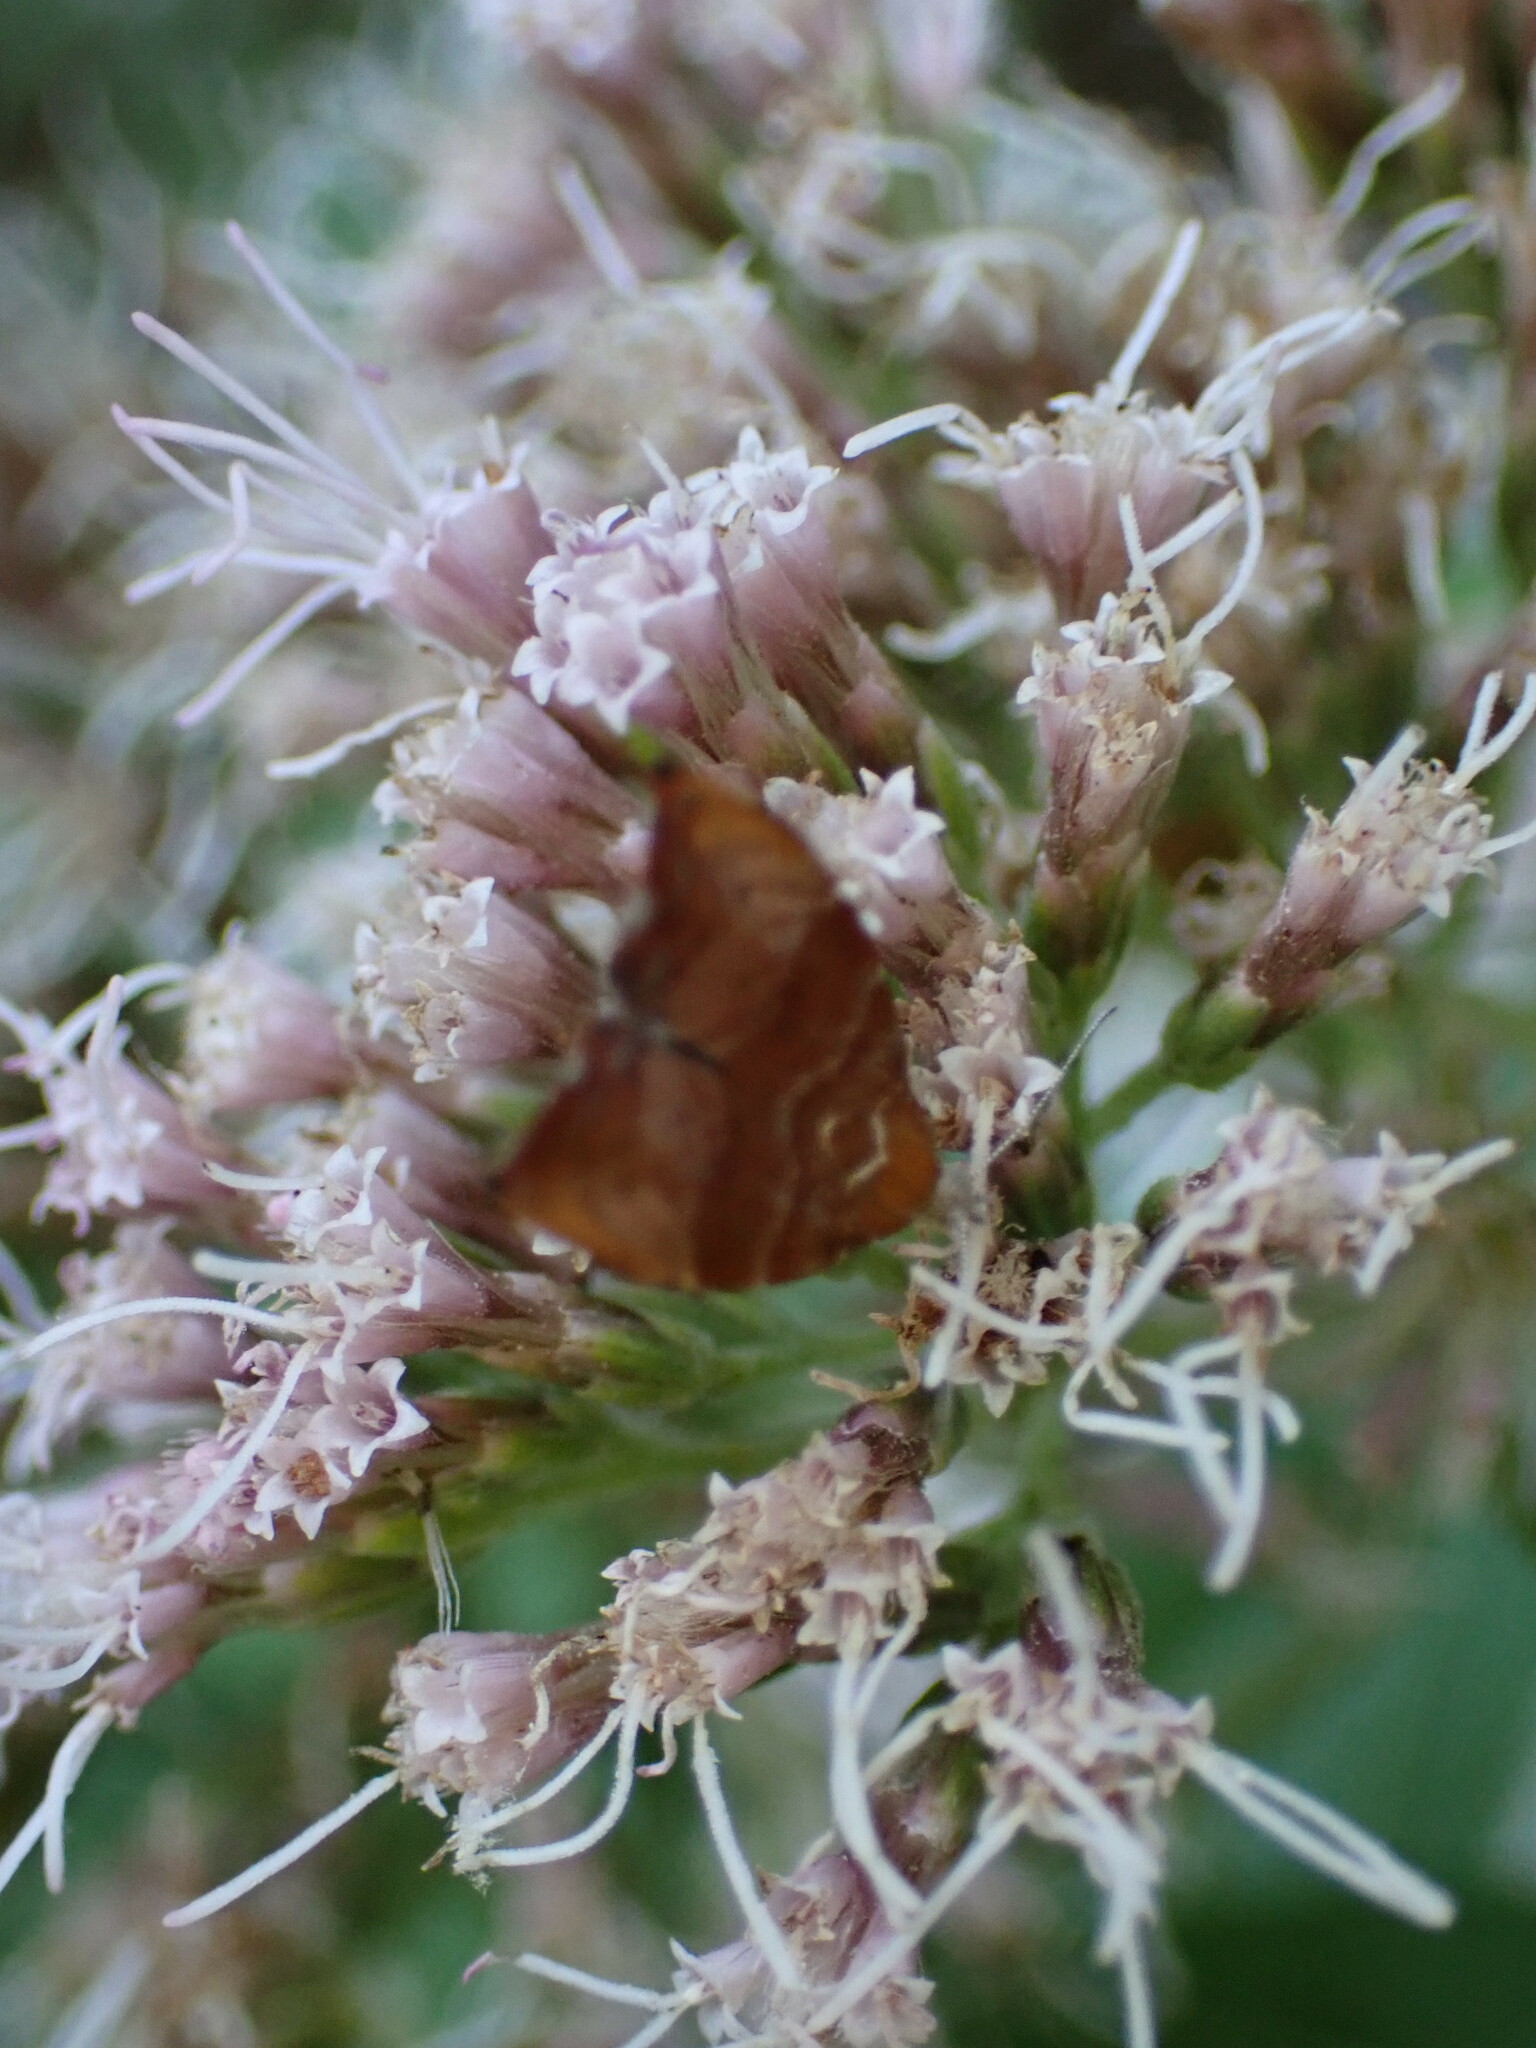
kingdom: Animalia
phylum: Arthropoda
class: Insecta
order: Lepidoptera
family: Choreutidae
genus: Anthophila
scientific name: Anthophila nemorana
